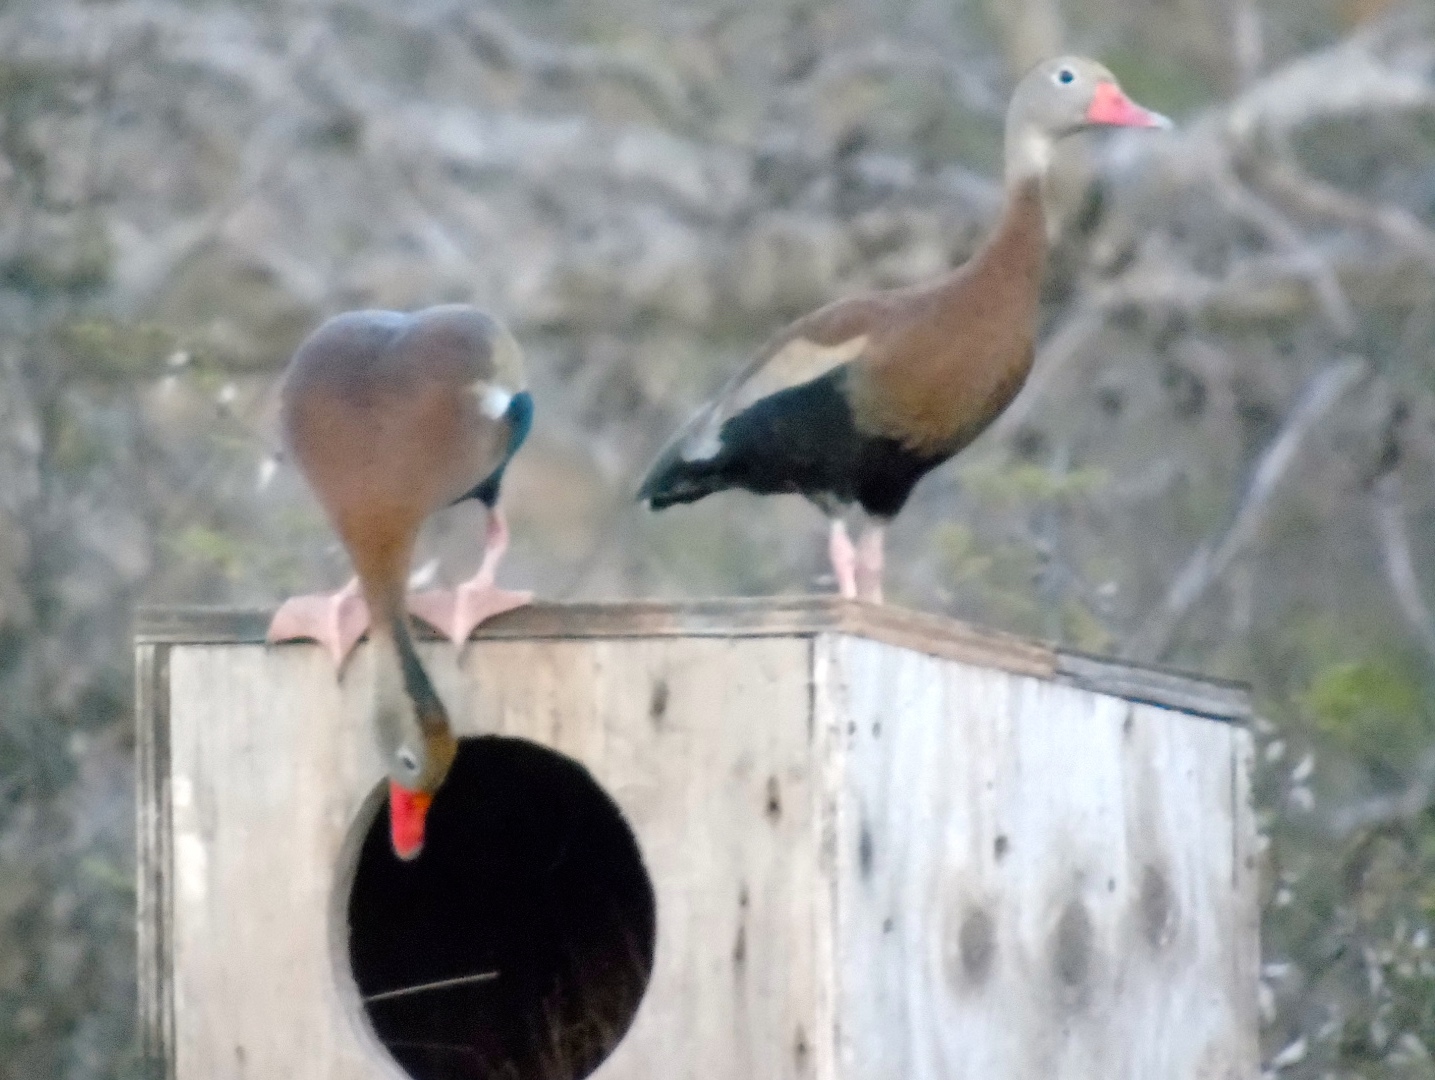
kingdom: Animalia
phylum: Chordata
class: Aves
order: Anseriformes
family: Anatidae
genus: Dendrocygna
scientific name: Dendrocygna autumnalis
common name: Black-bellied whistling duck
